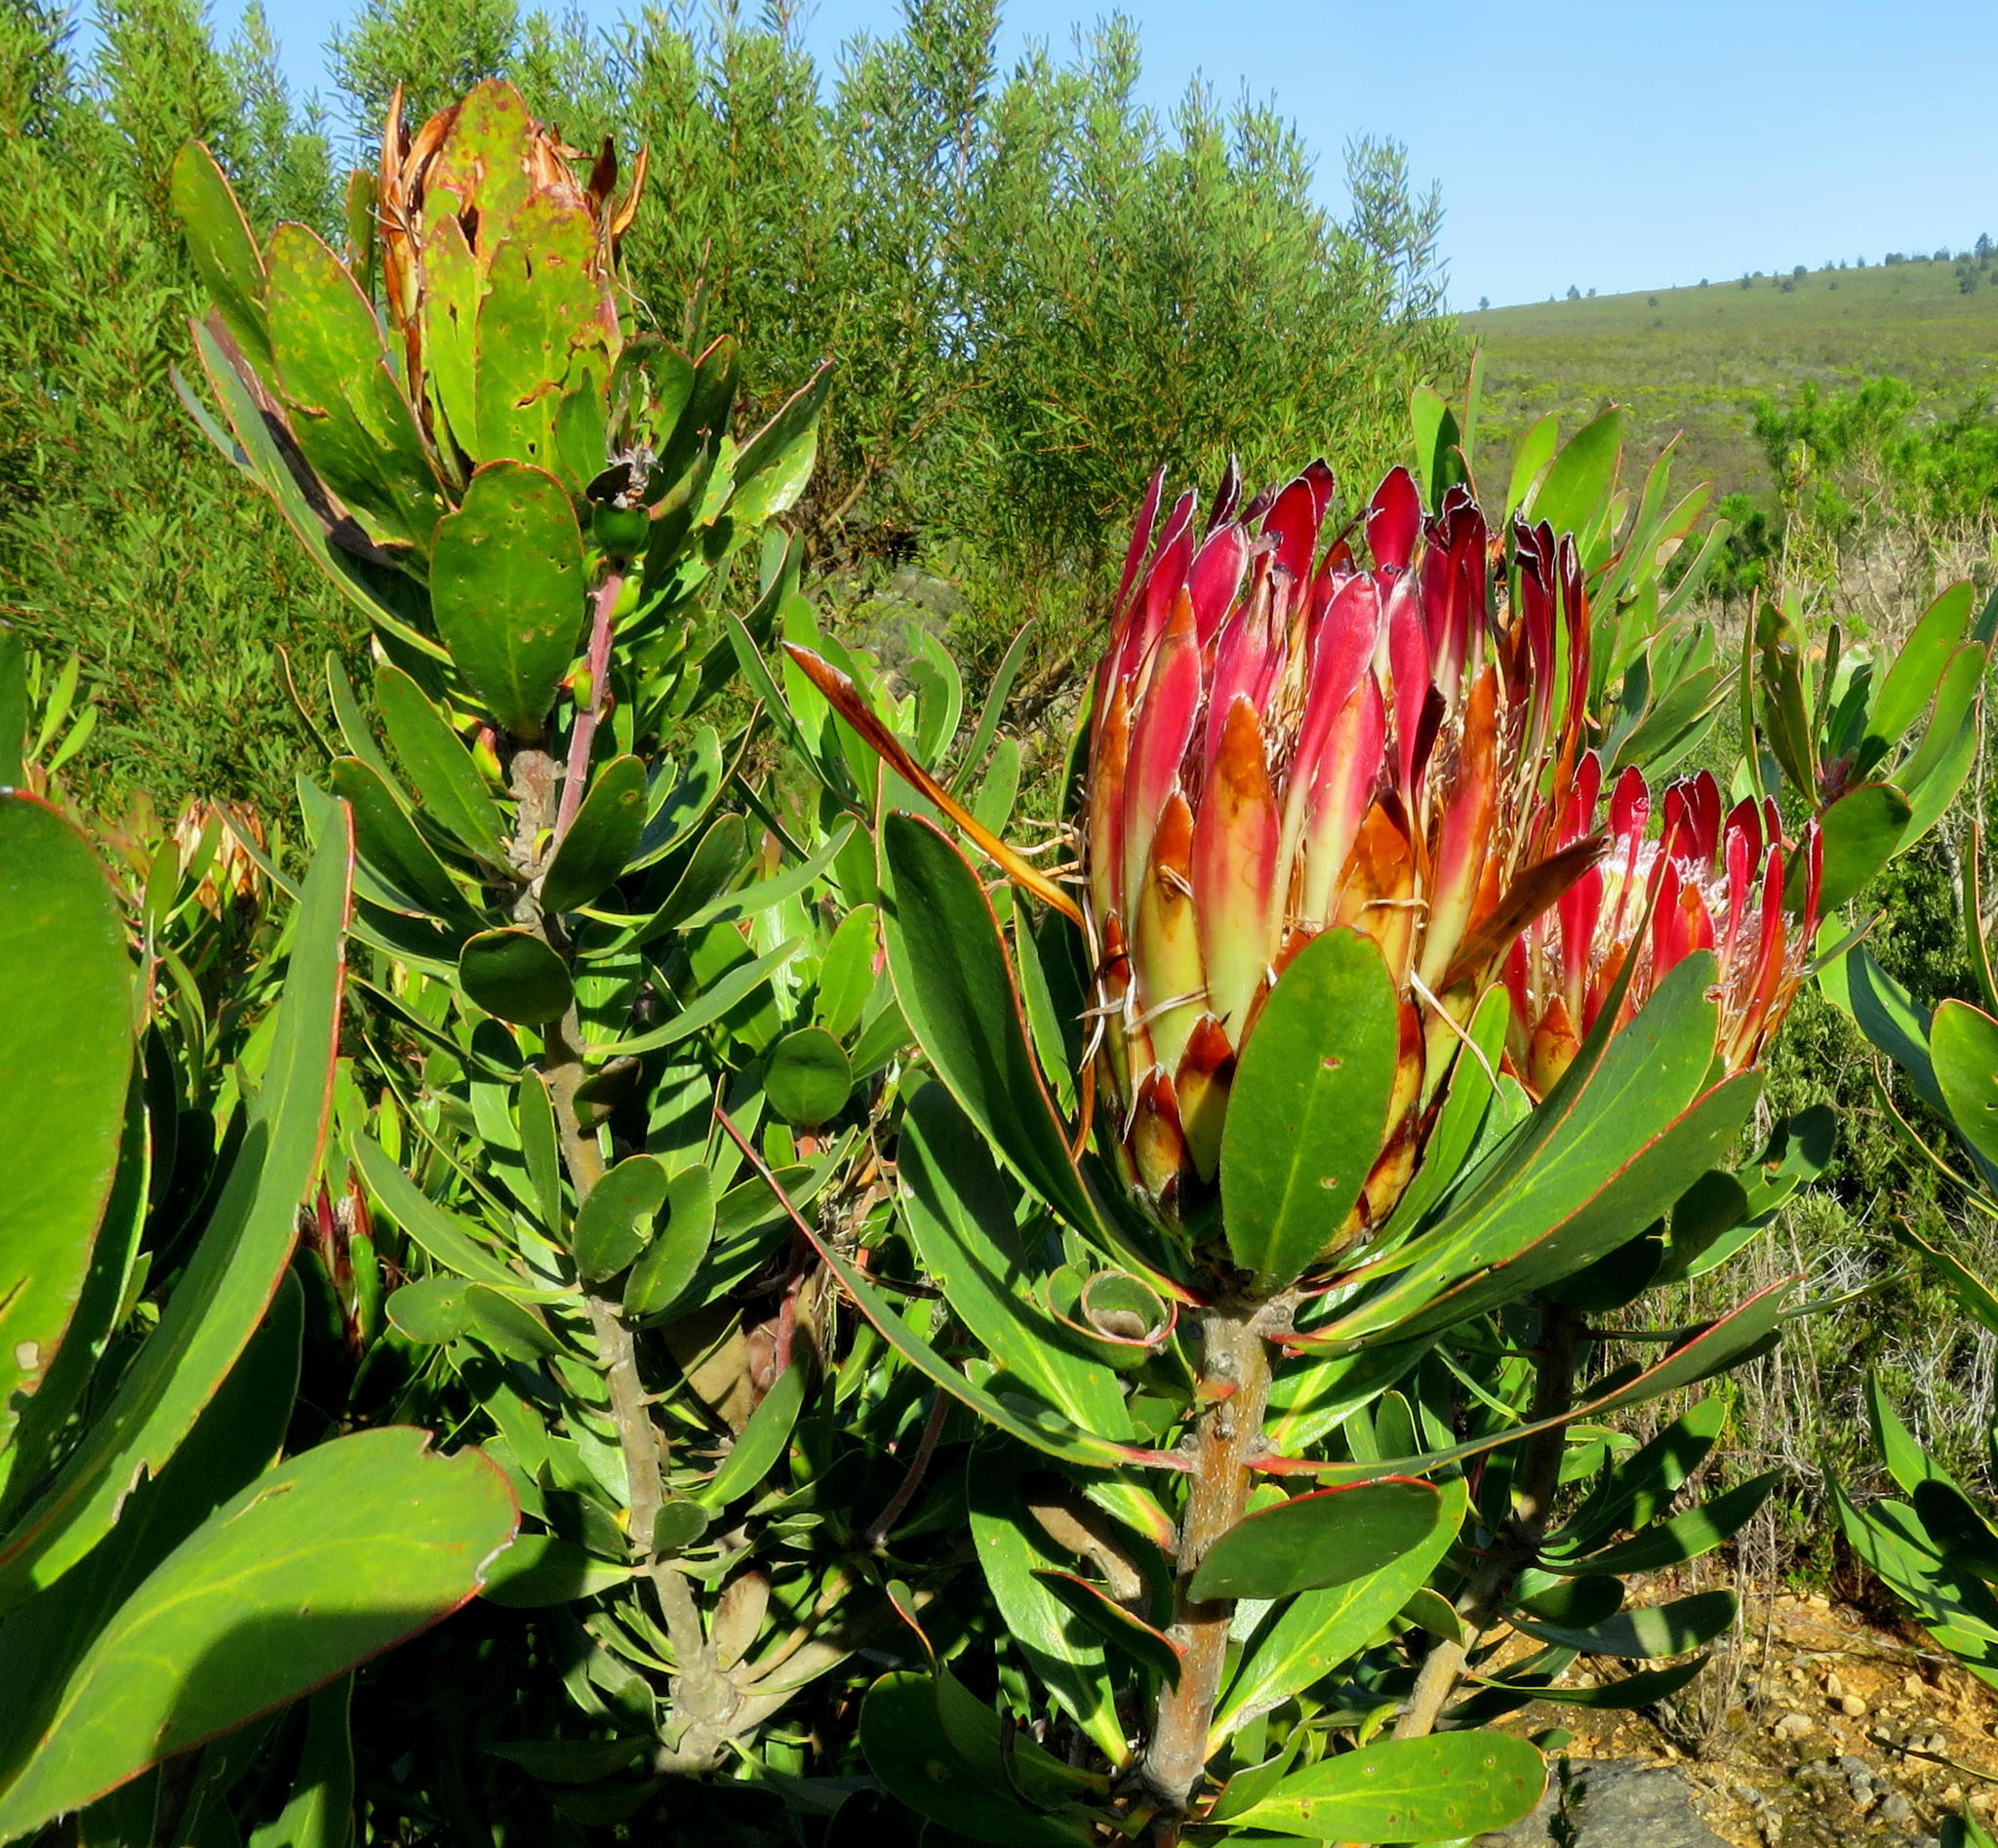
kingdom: Plantae
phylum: Tracheophyta
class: Magnoliopsida
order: Proteales
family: Proteaceae
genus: Protea
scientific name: Protea obtusifolia
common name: Bredasdorp sugarbush
